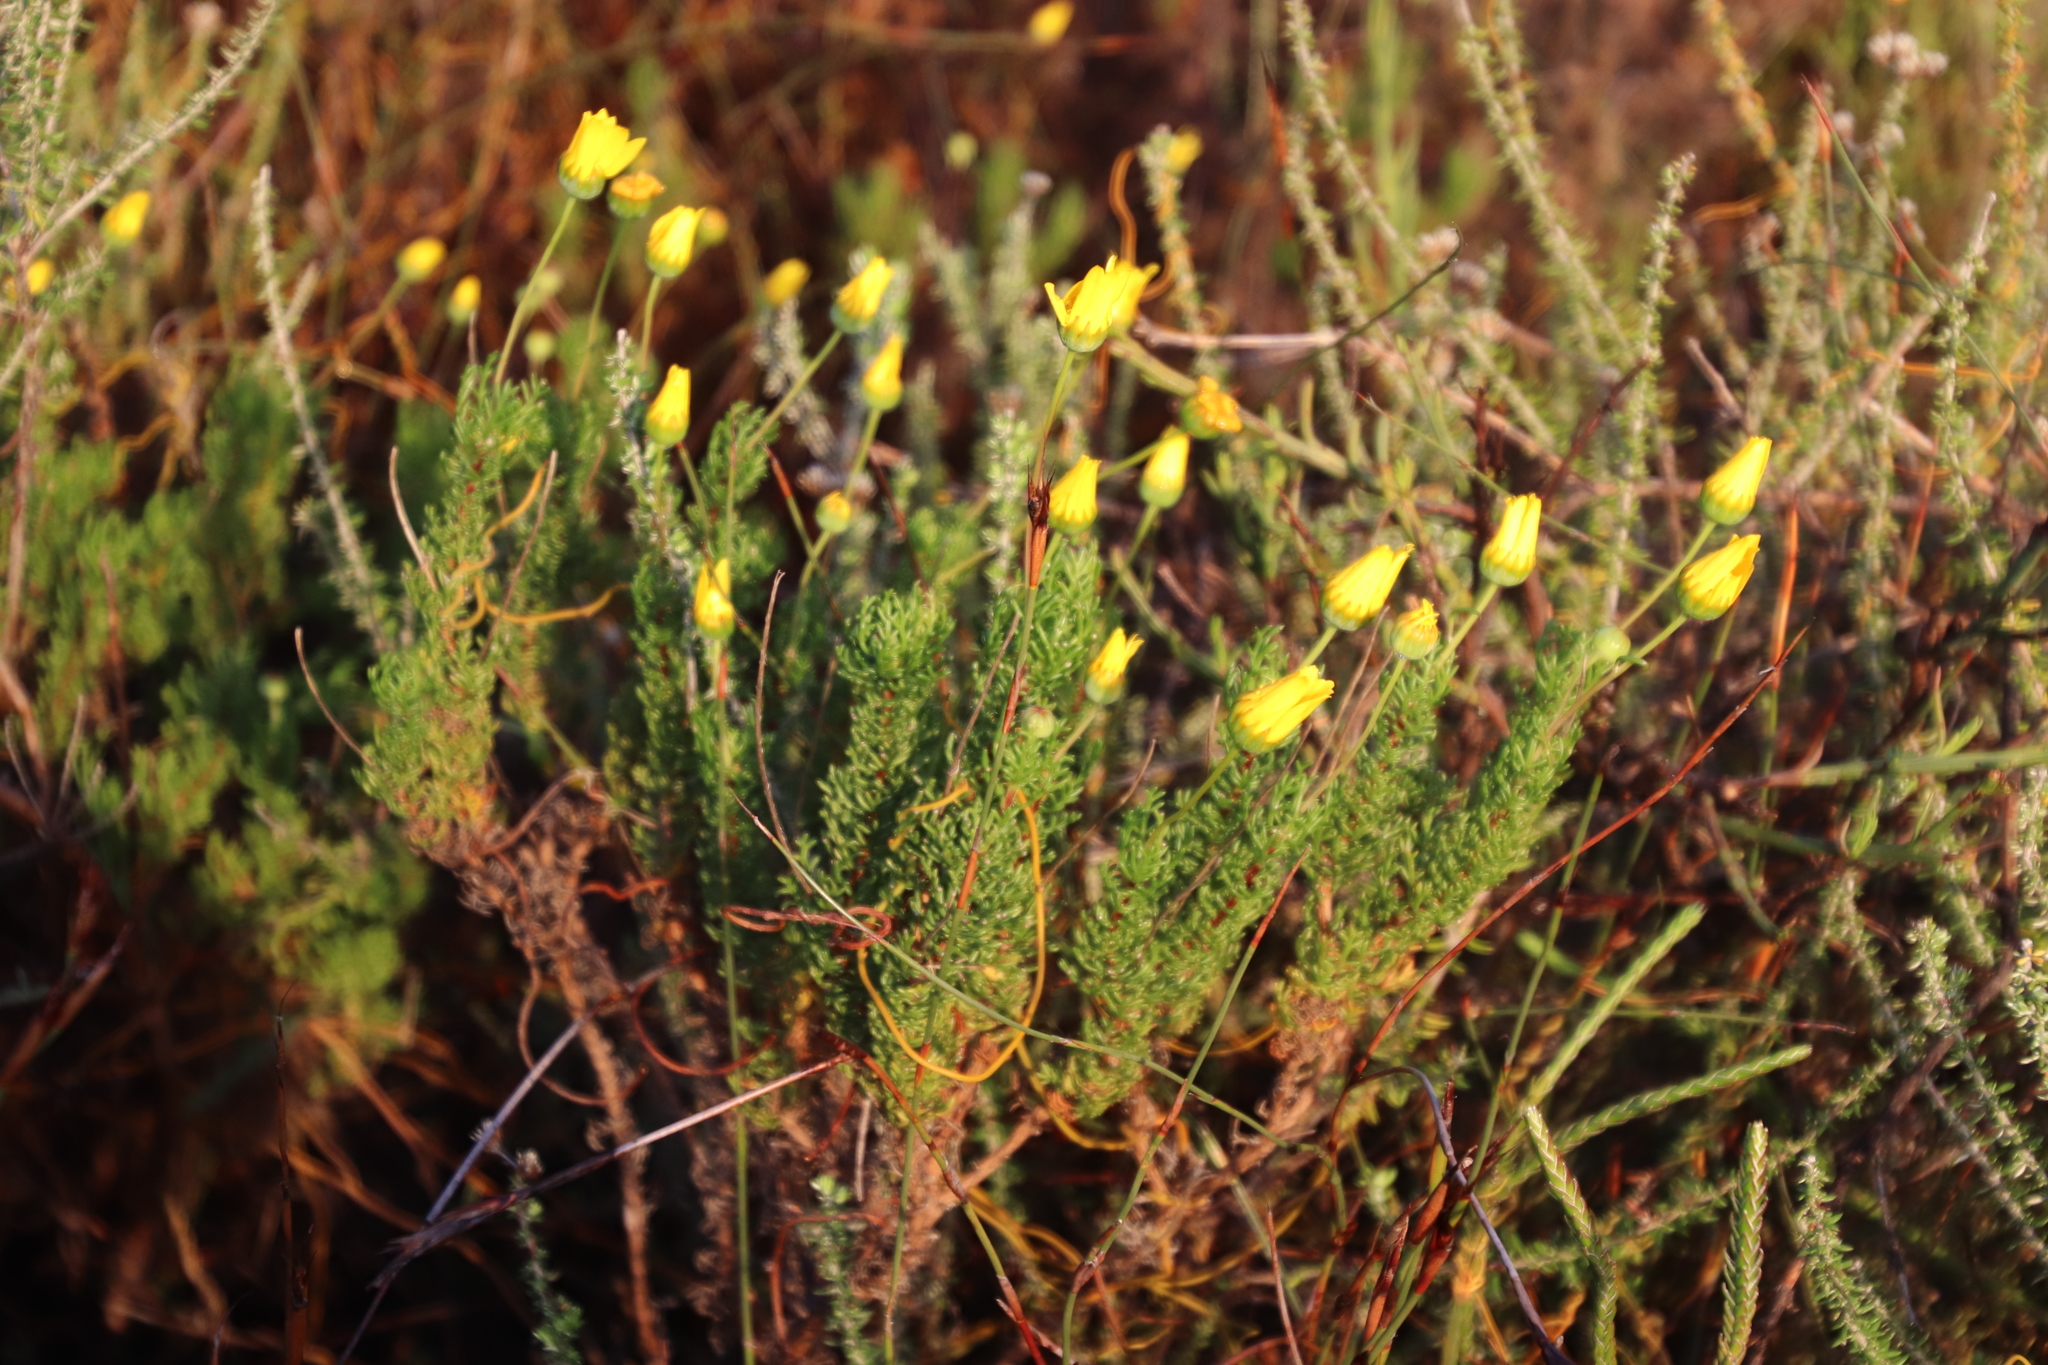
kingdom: Plantae
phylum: Tracheophyta
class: Magnoliopsida
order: Asterales
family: Asteraceae
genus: Euryops
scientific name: Euryops abrotanifolius
